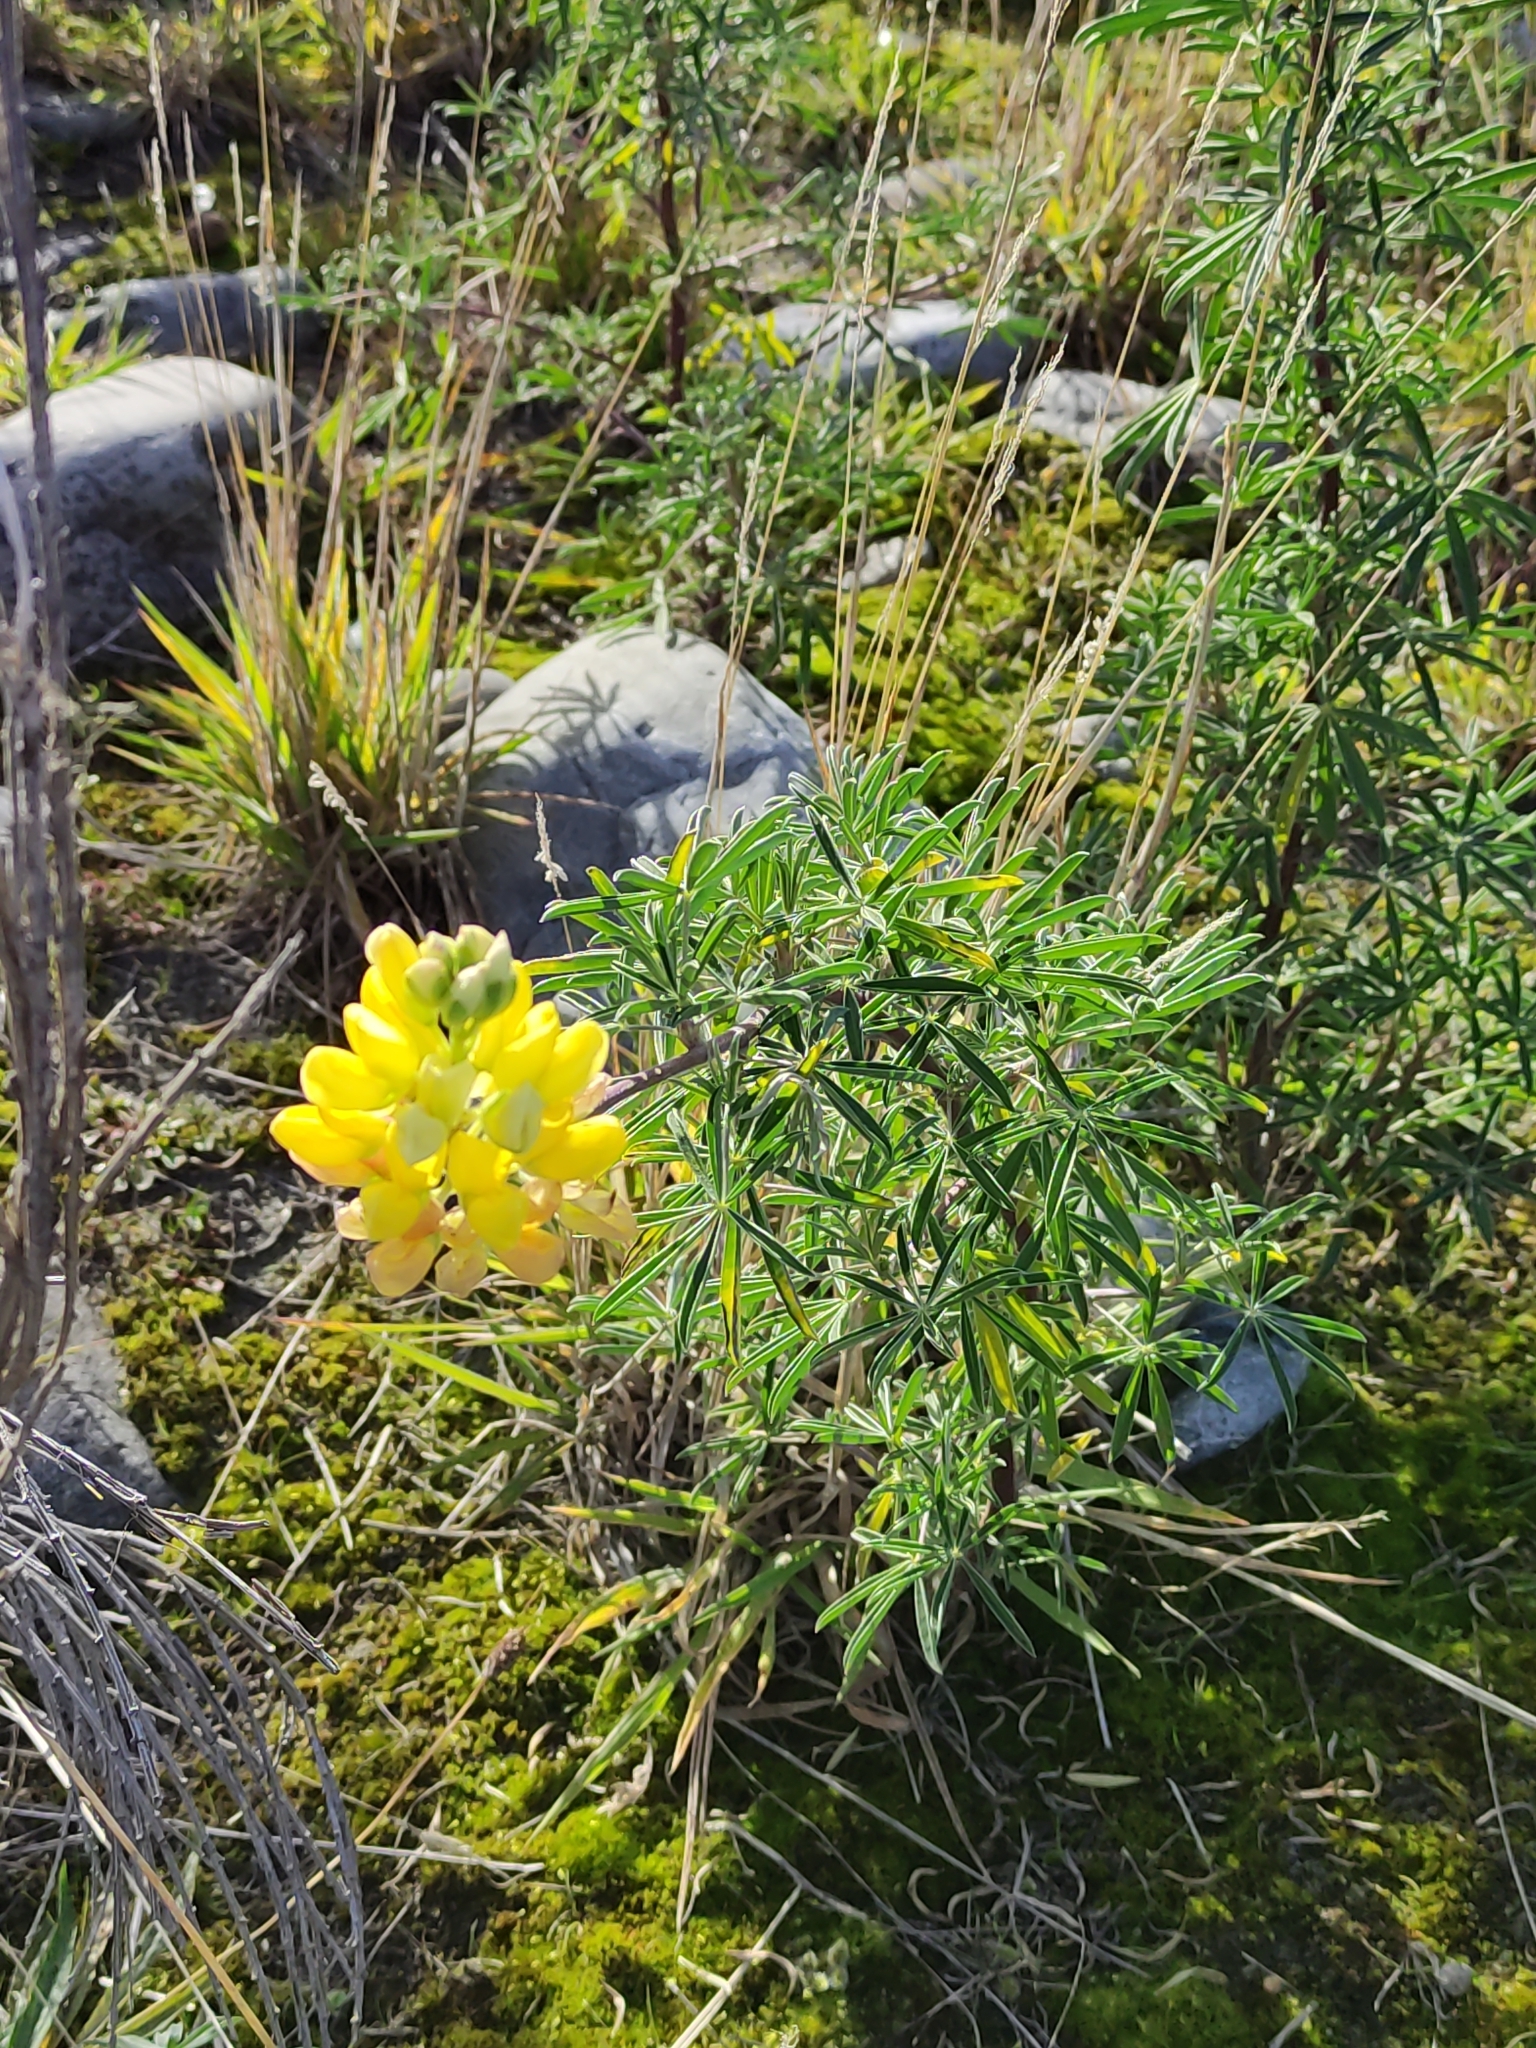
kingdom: Plantae
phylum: Tracheophyta
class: Magnoliopsida
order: Fabales
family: Fabaceae
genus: Lupinus
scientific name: Lupinus arboreus
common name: Yellow bush lupine
